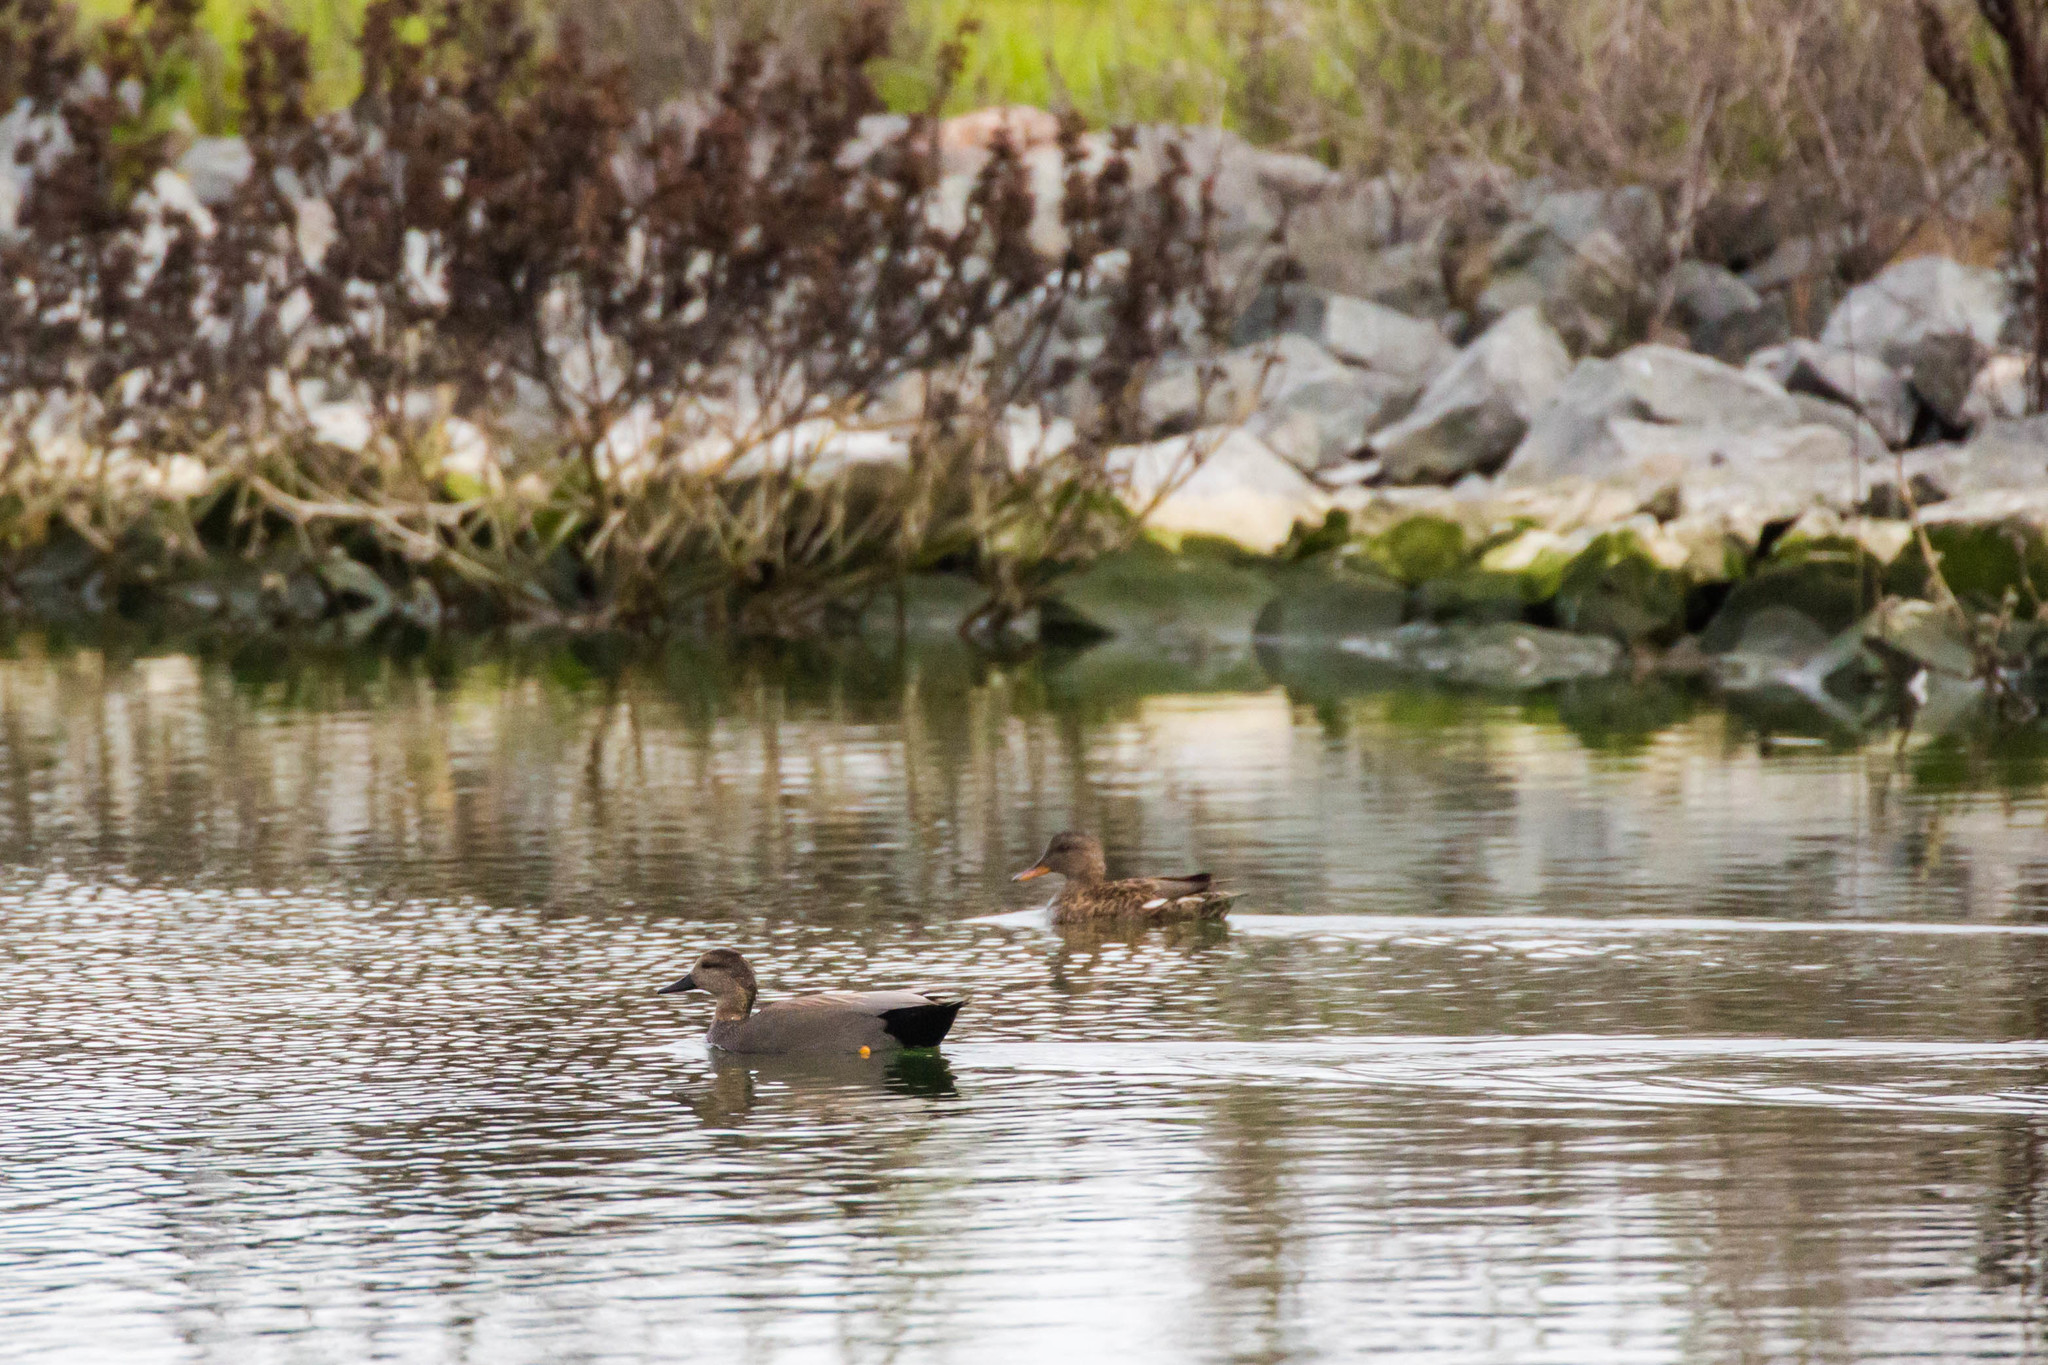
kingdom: Animalia
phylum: Chordata
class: Aves
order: Anseriformes
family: Anatidae
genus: Mareca
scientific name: Mareca strepera
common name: Gadwall
